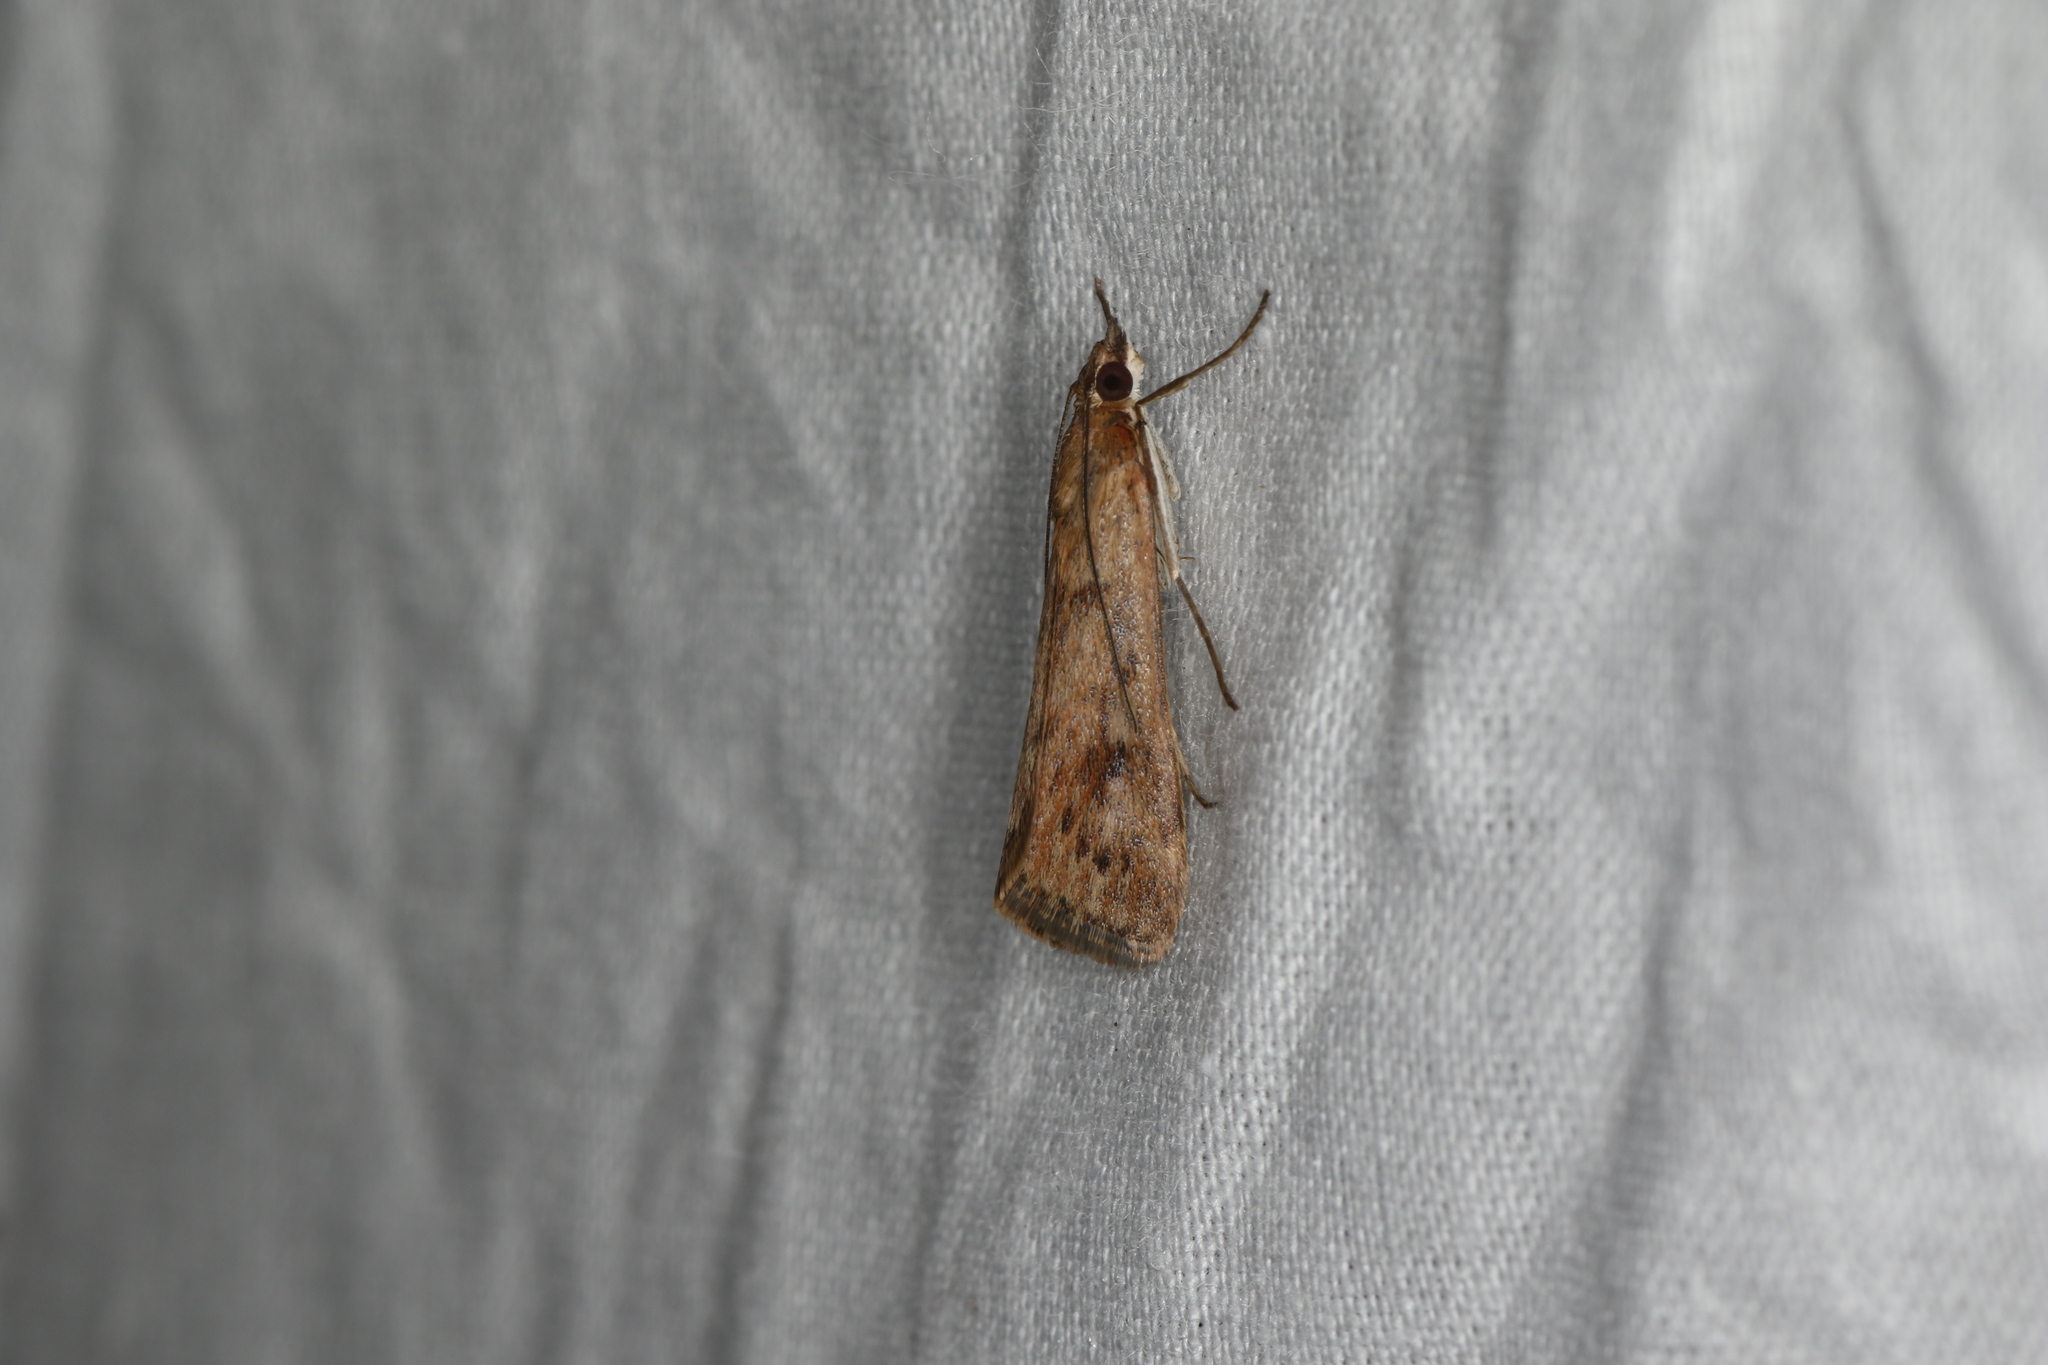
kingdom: Animalia
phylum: Arthropoda
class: Insecta
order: Lepidoptera
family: Crambidae
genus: Achyra
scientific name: Achyra affinitalis
